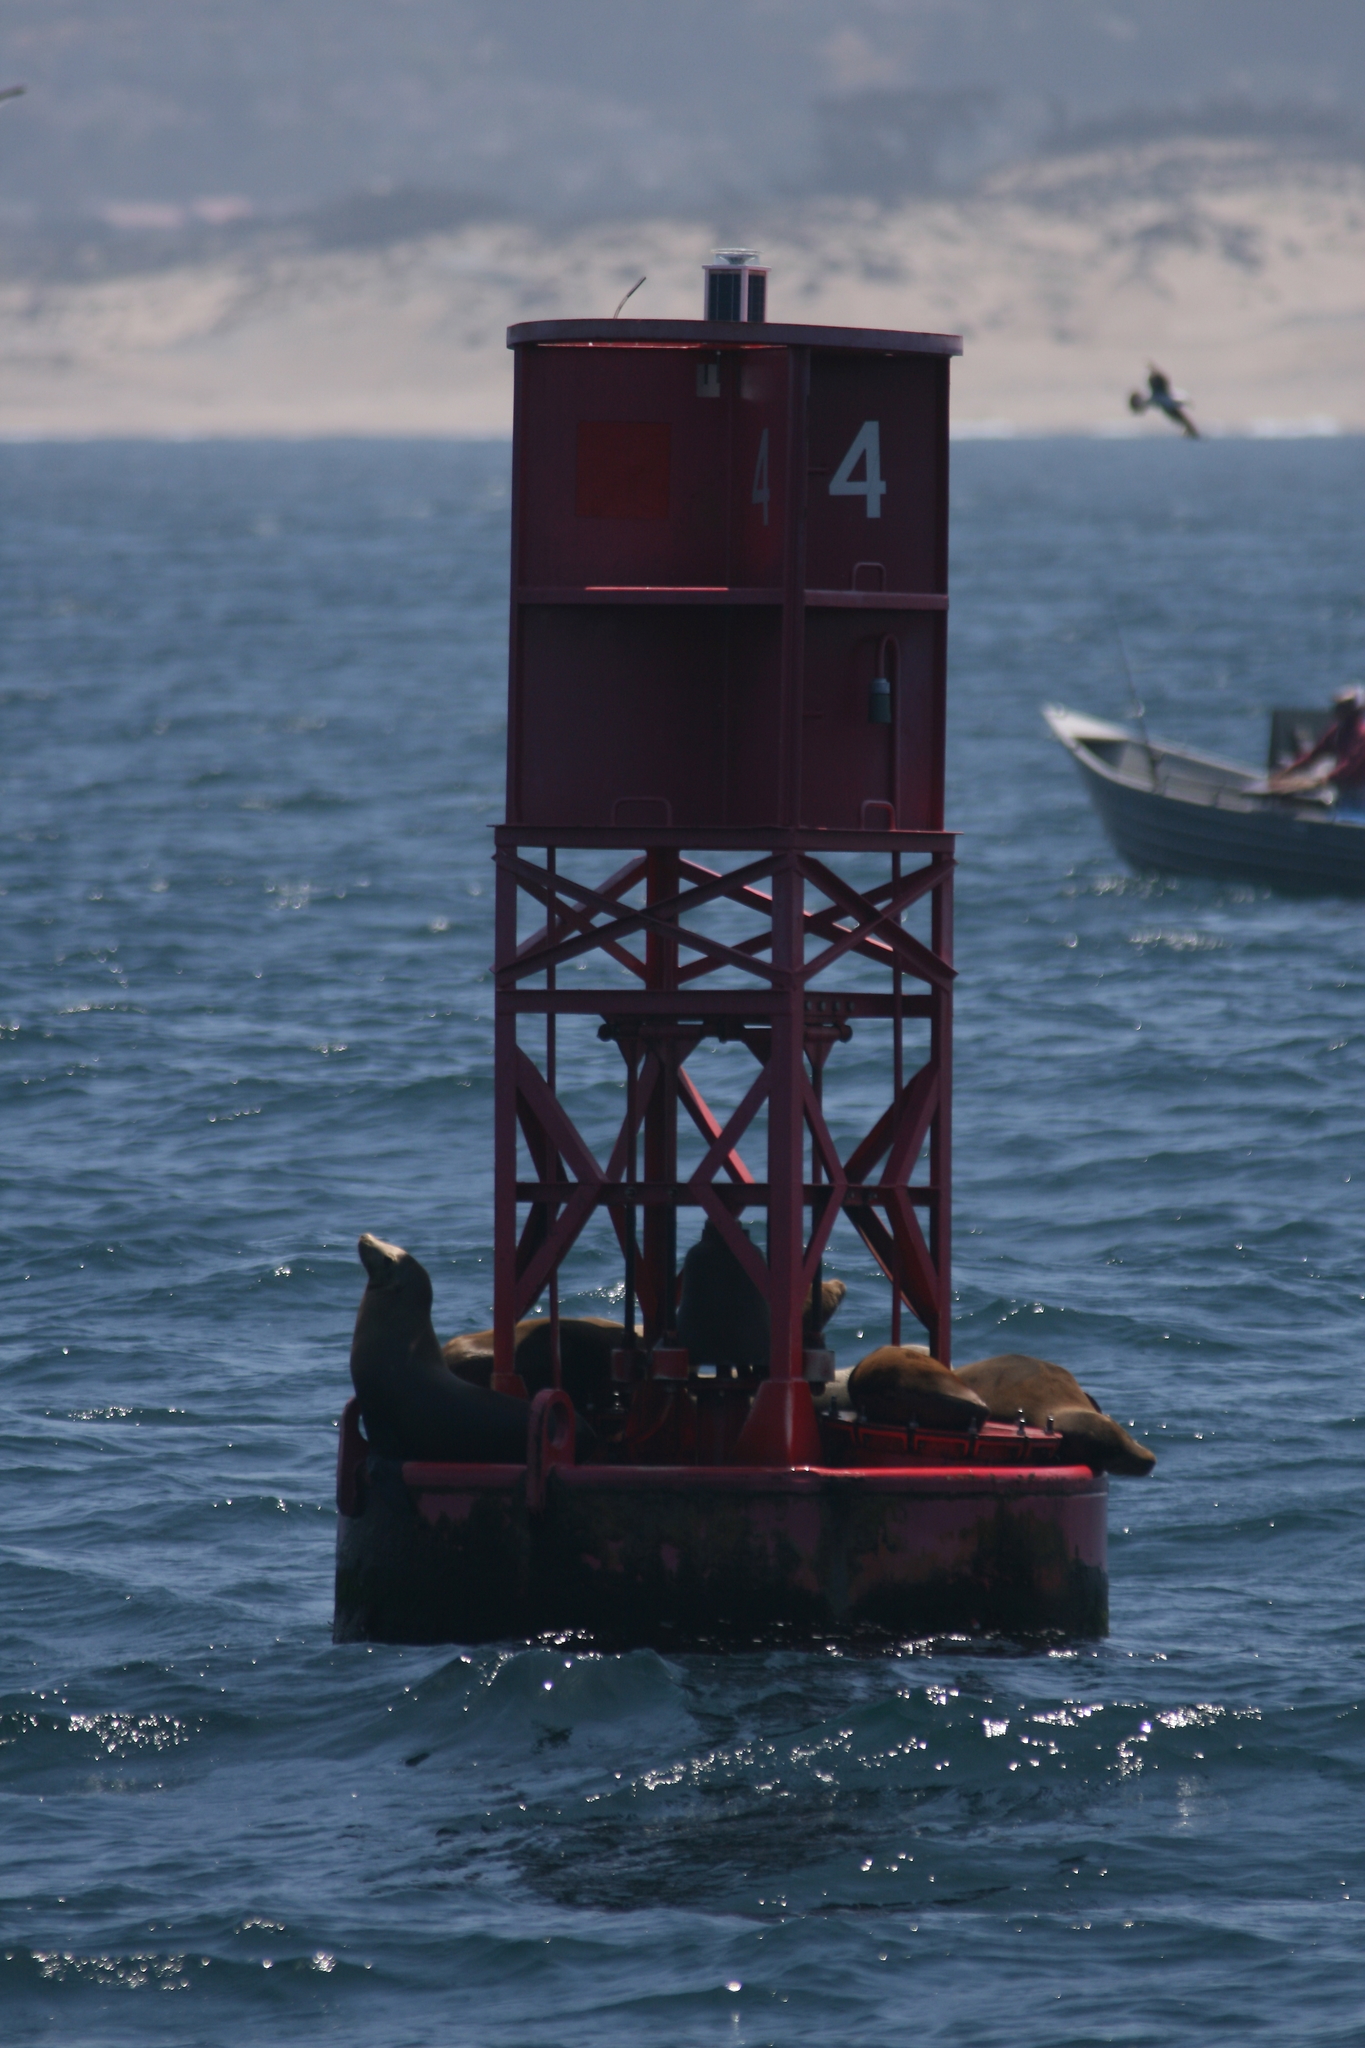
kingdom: Animalia
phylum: Chordata
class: Mammalia
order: Carnivora
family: Otariidae
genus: Zalophus
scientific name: Zalophus californianus
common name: California sea lion
